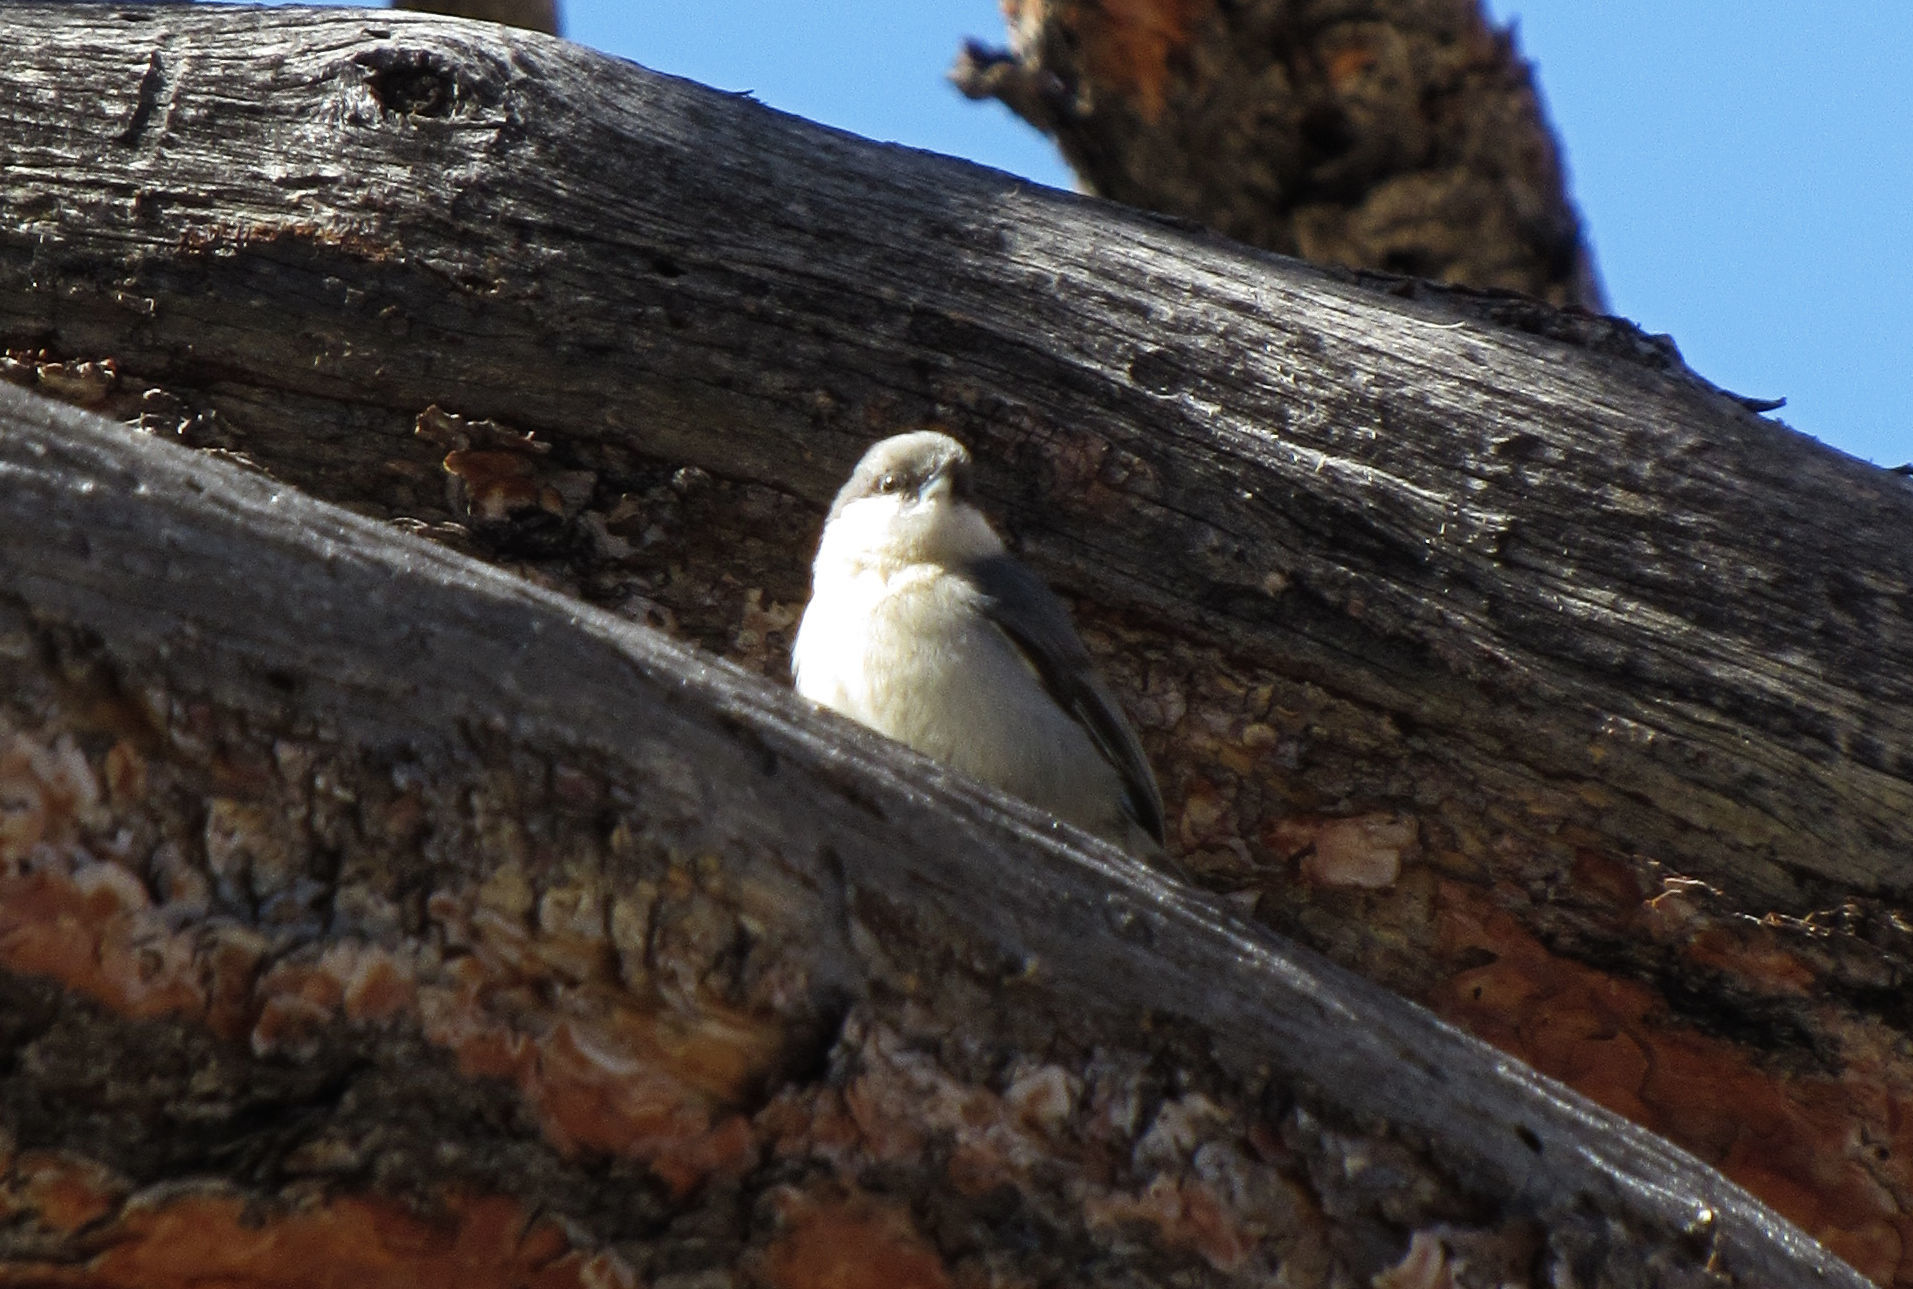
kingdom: Animalia
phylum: Chordata
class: Aves
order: Passeriformes
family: Sittidae
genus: Sitta
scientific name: Sitta pygmaea
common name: Pygmy nuthatch
